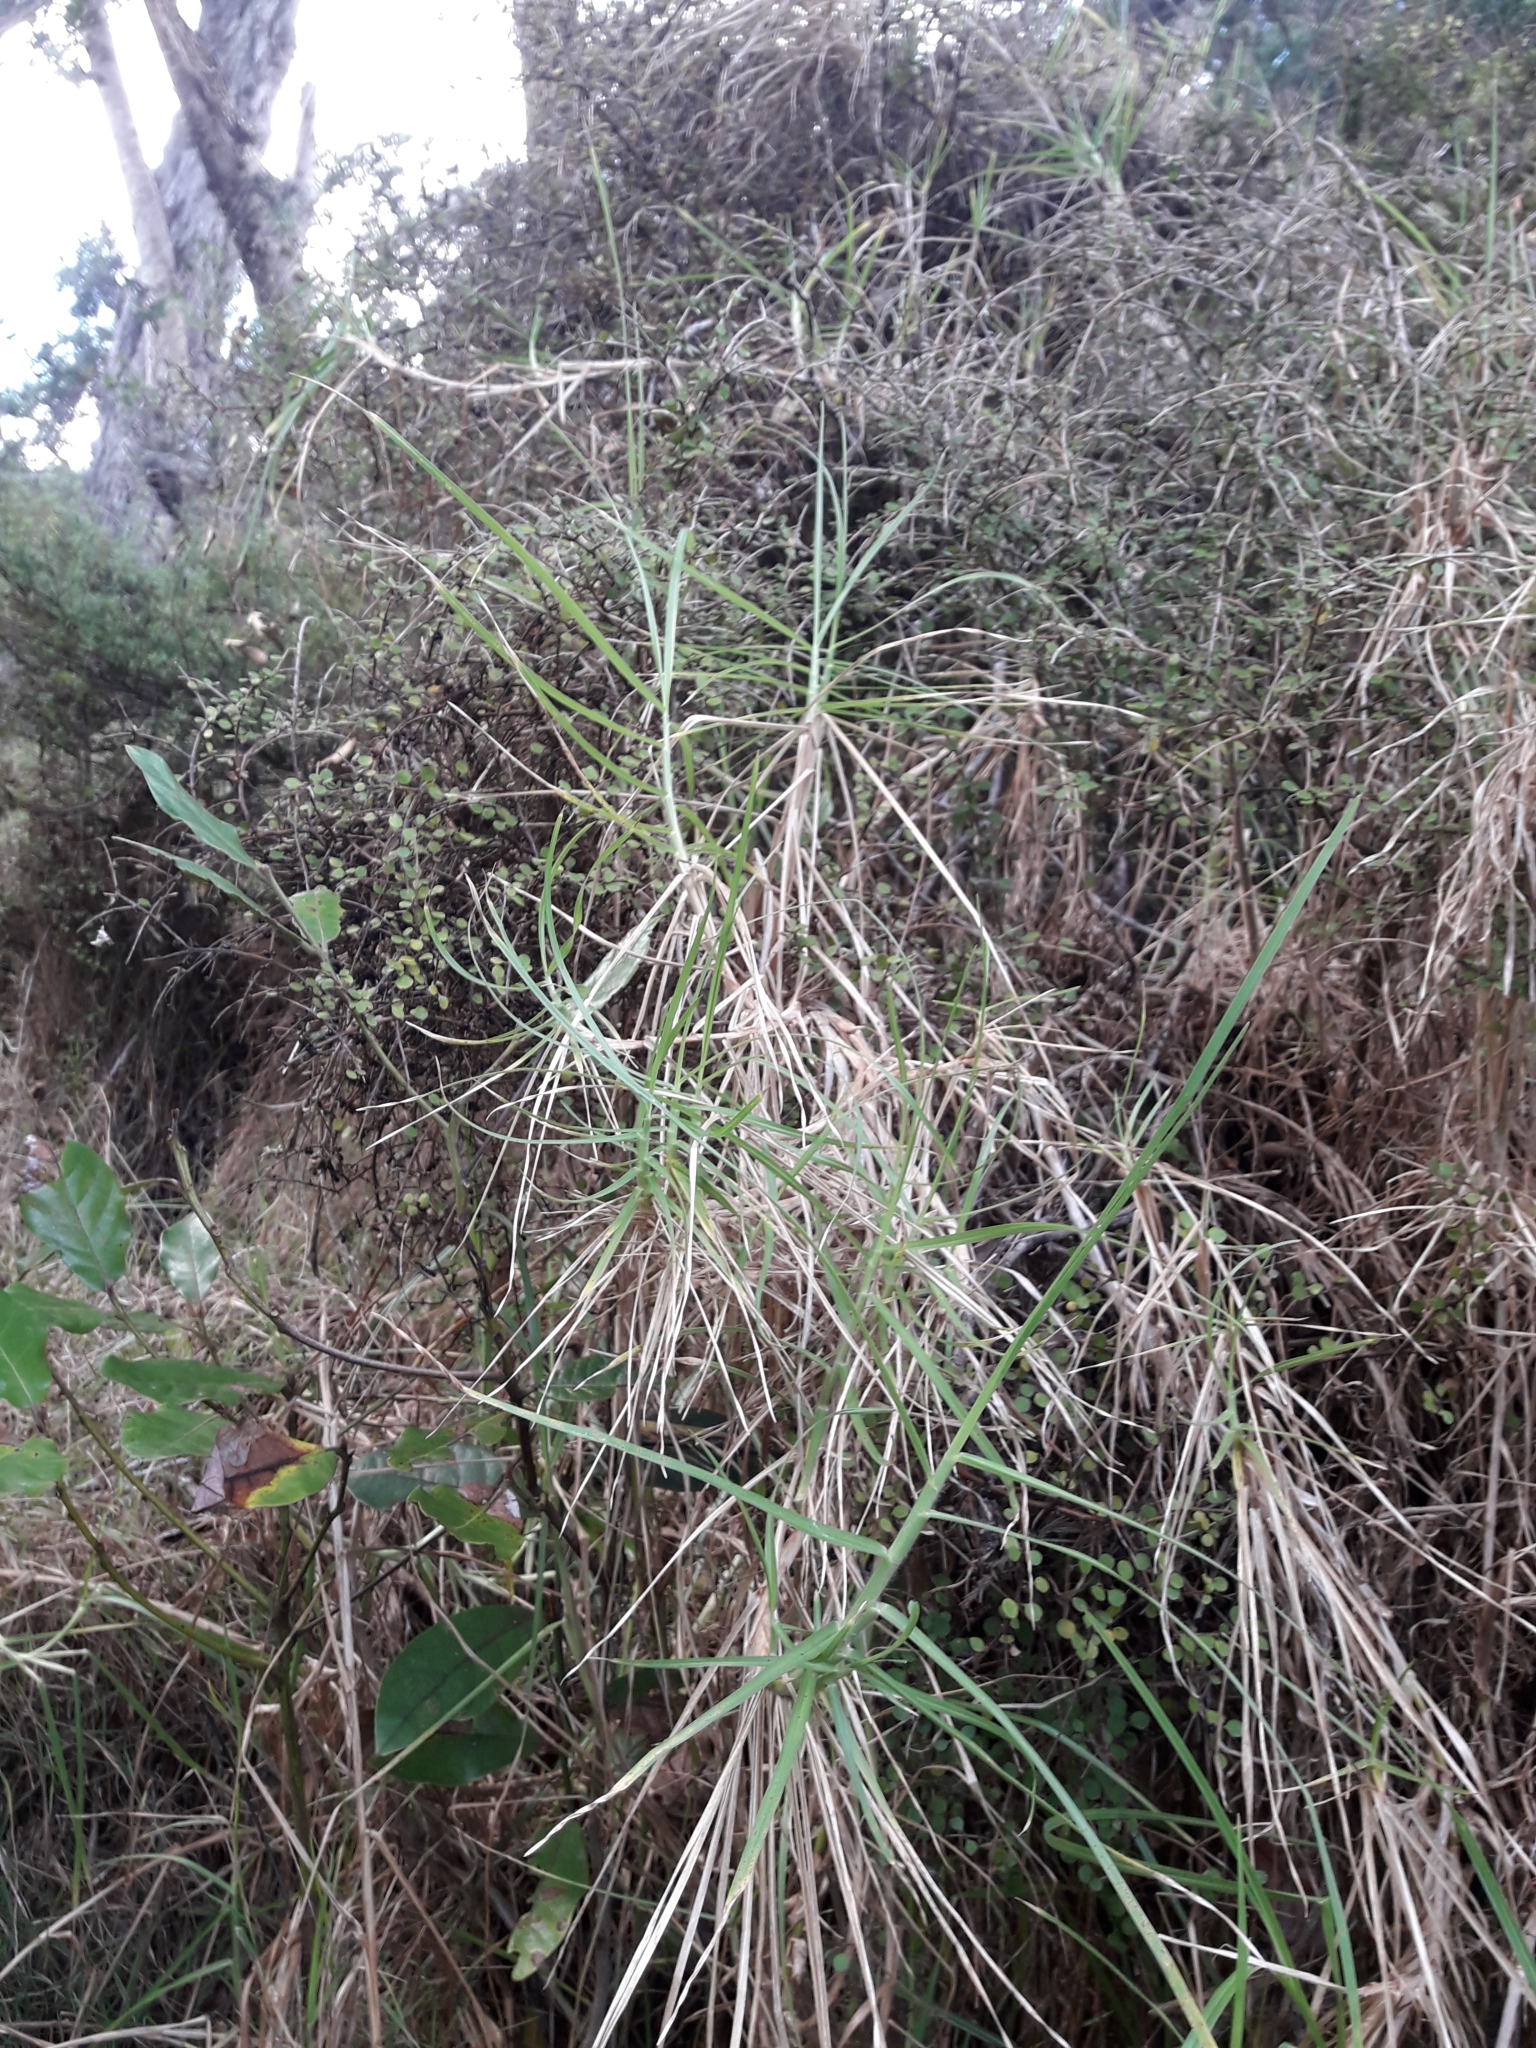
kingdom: Plantae
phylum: Tracheophyta
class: Liliopsida
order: Poales
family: Poaceae
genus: Cenchrus
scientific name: Cenchrus clandestinus
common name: Kikuyugrass
